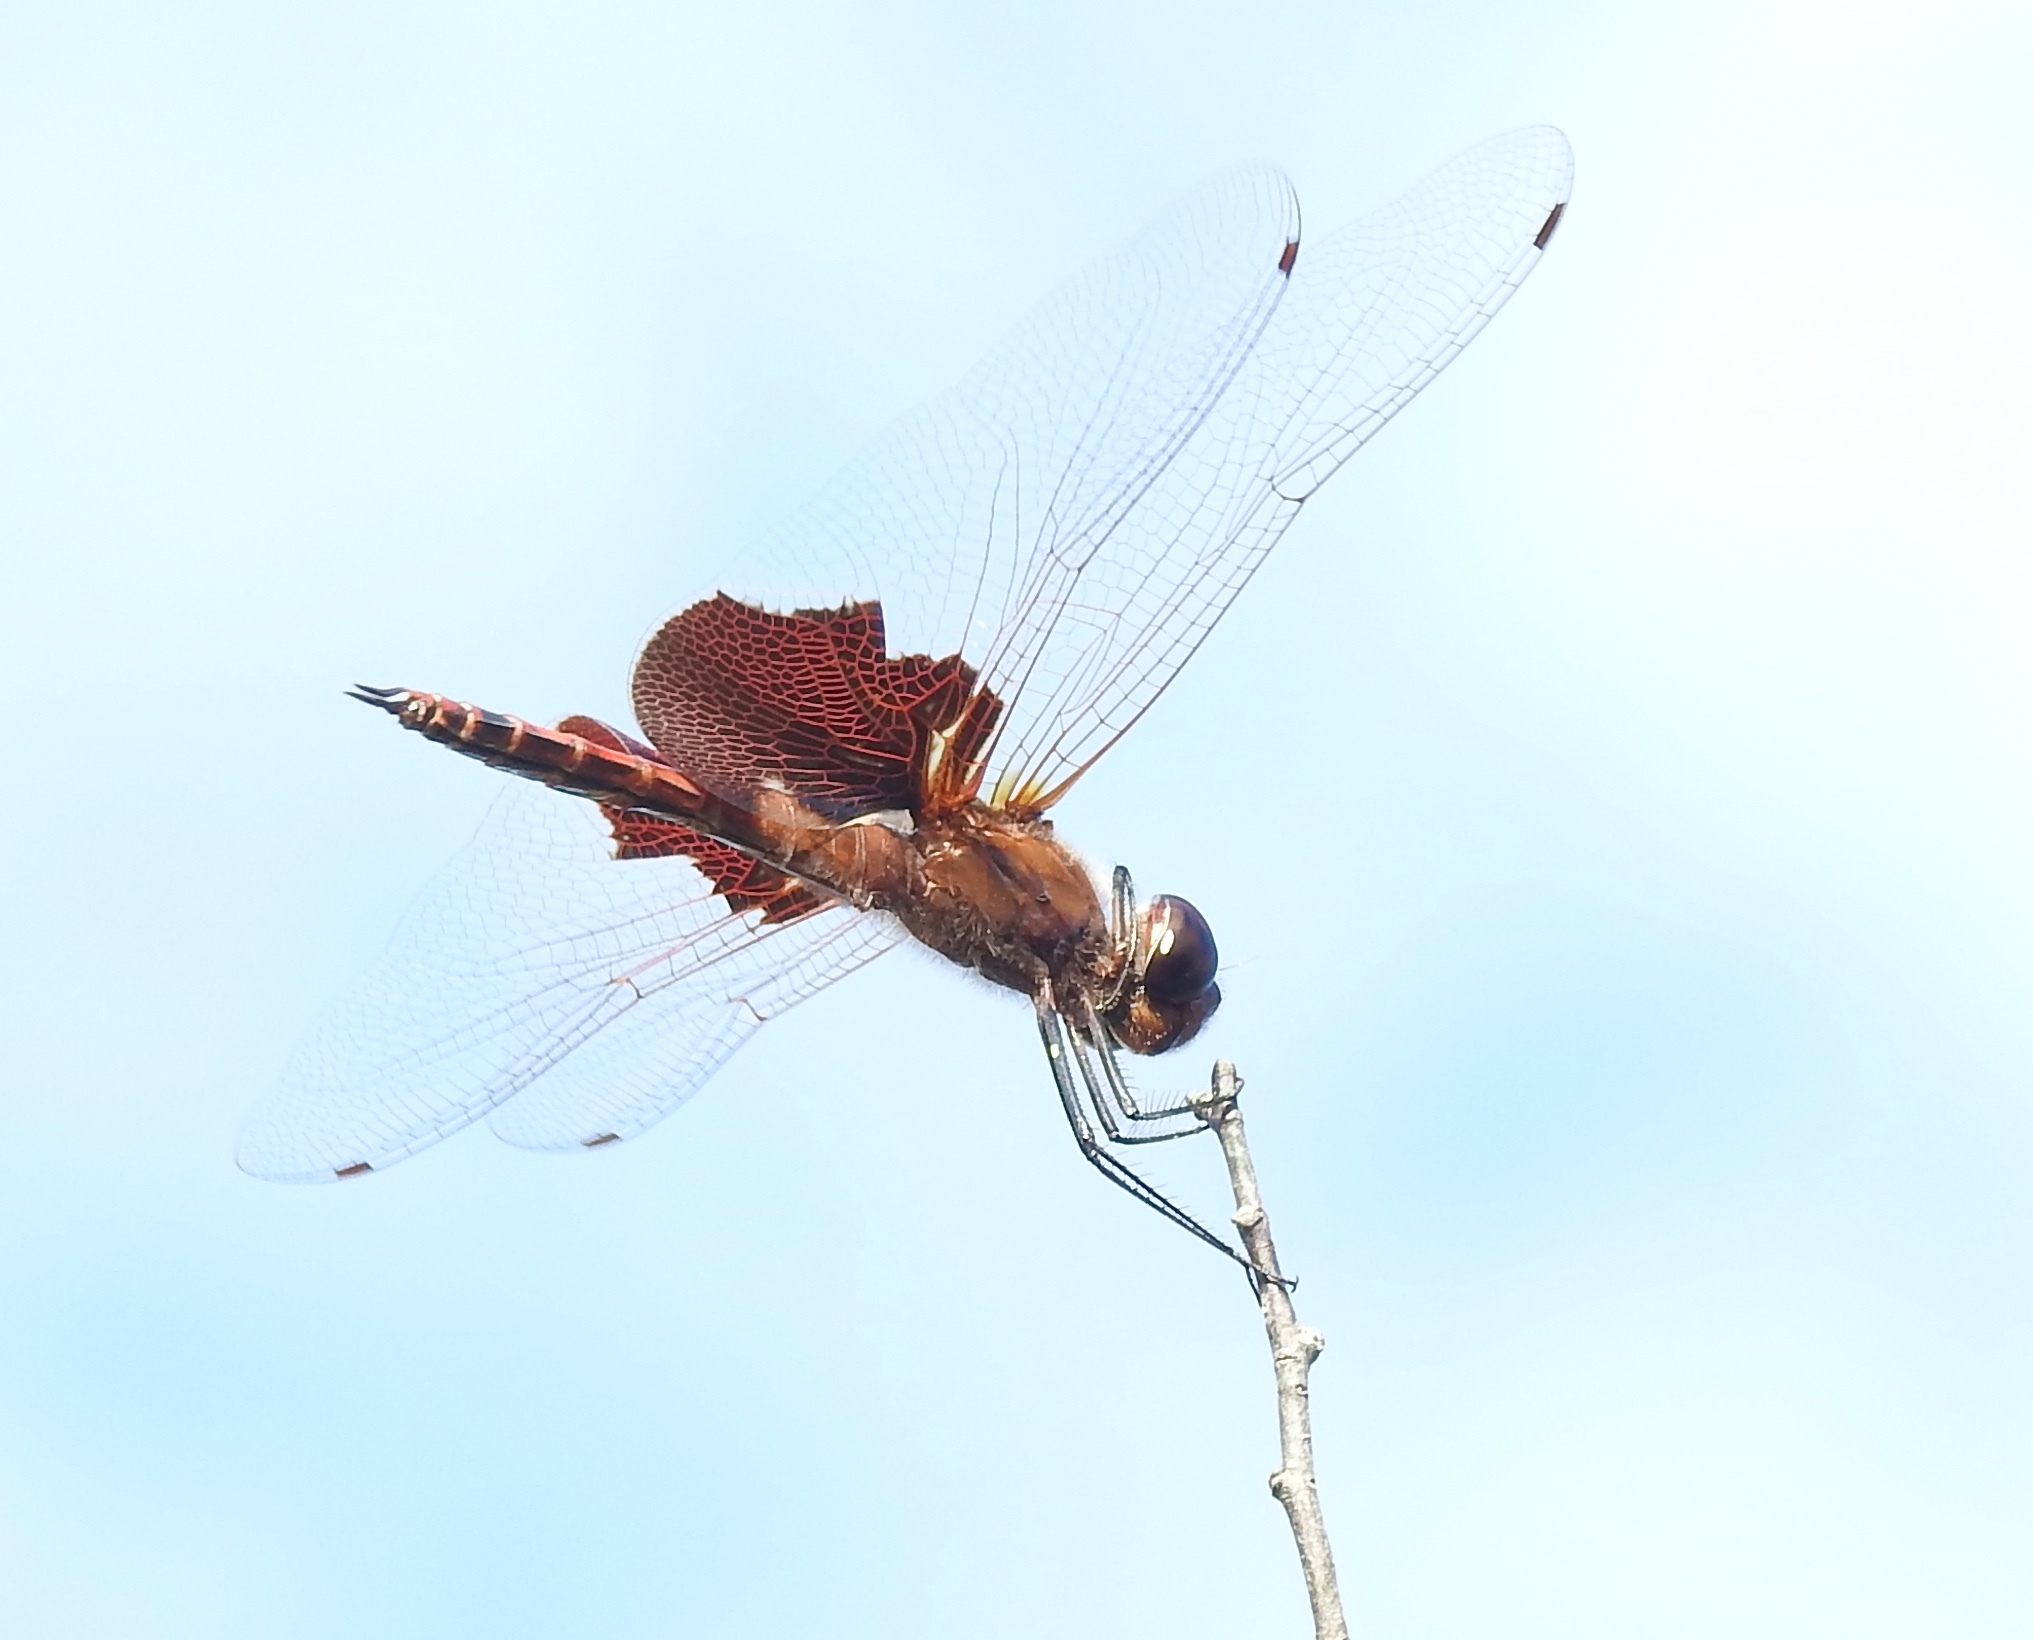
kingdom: Animalia
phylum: Arthropoda
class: Insecta
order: Odonata
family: Libellulidae
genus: Tramea
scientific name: Tramea carolina
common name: Carolina saddlebags
